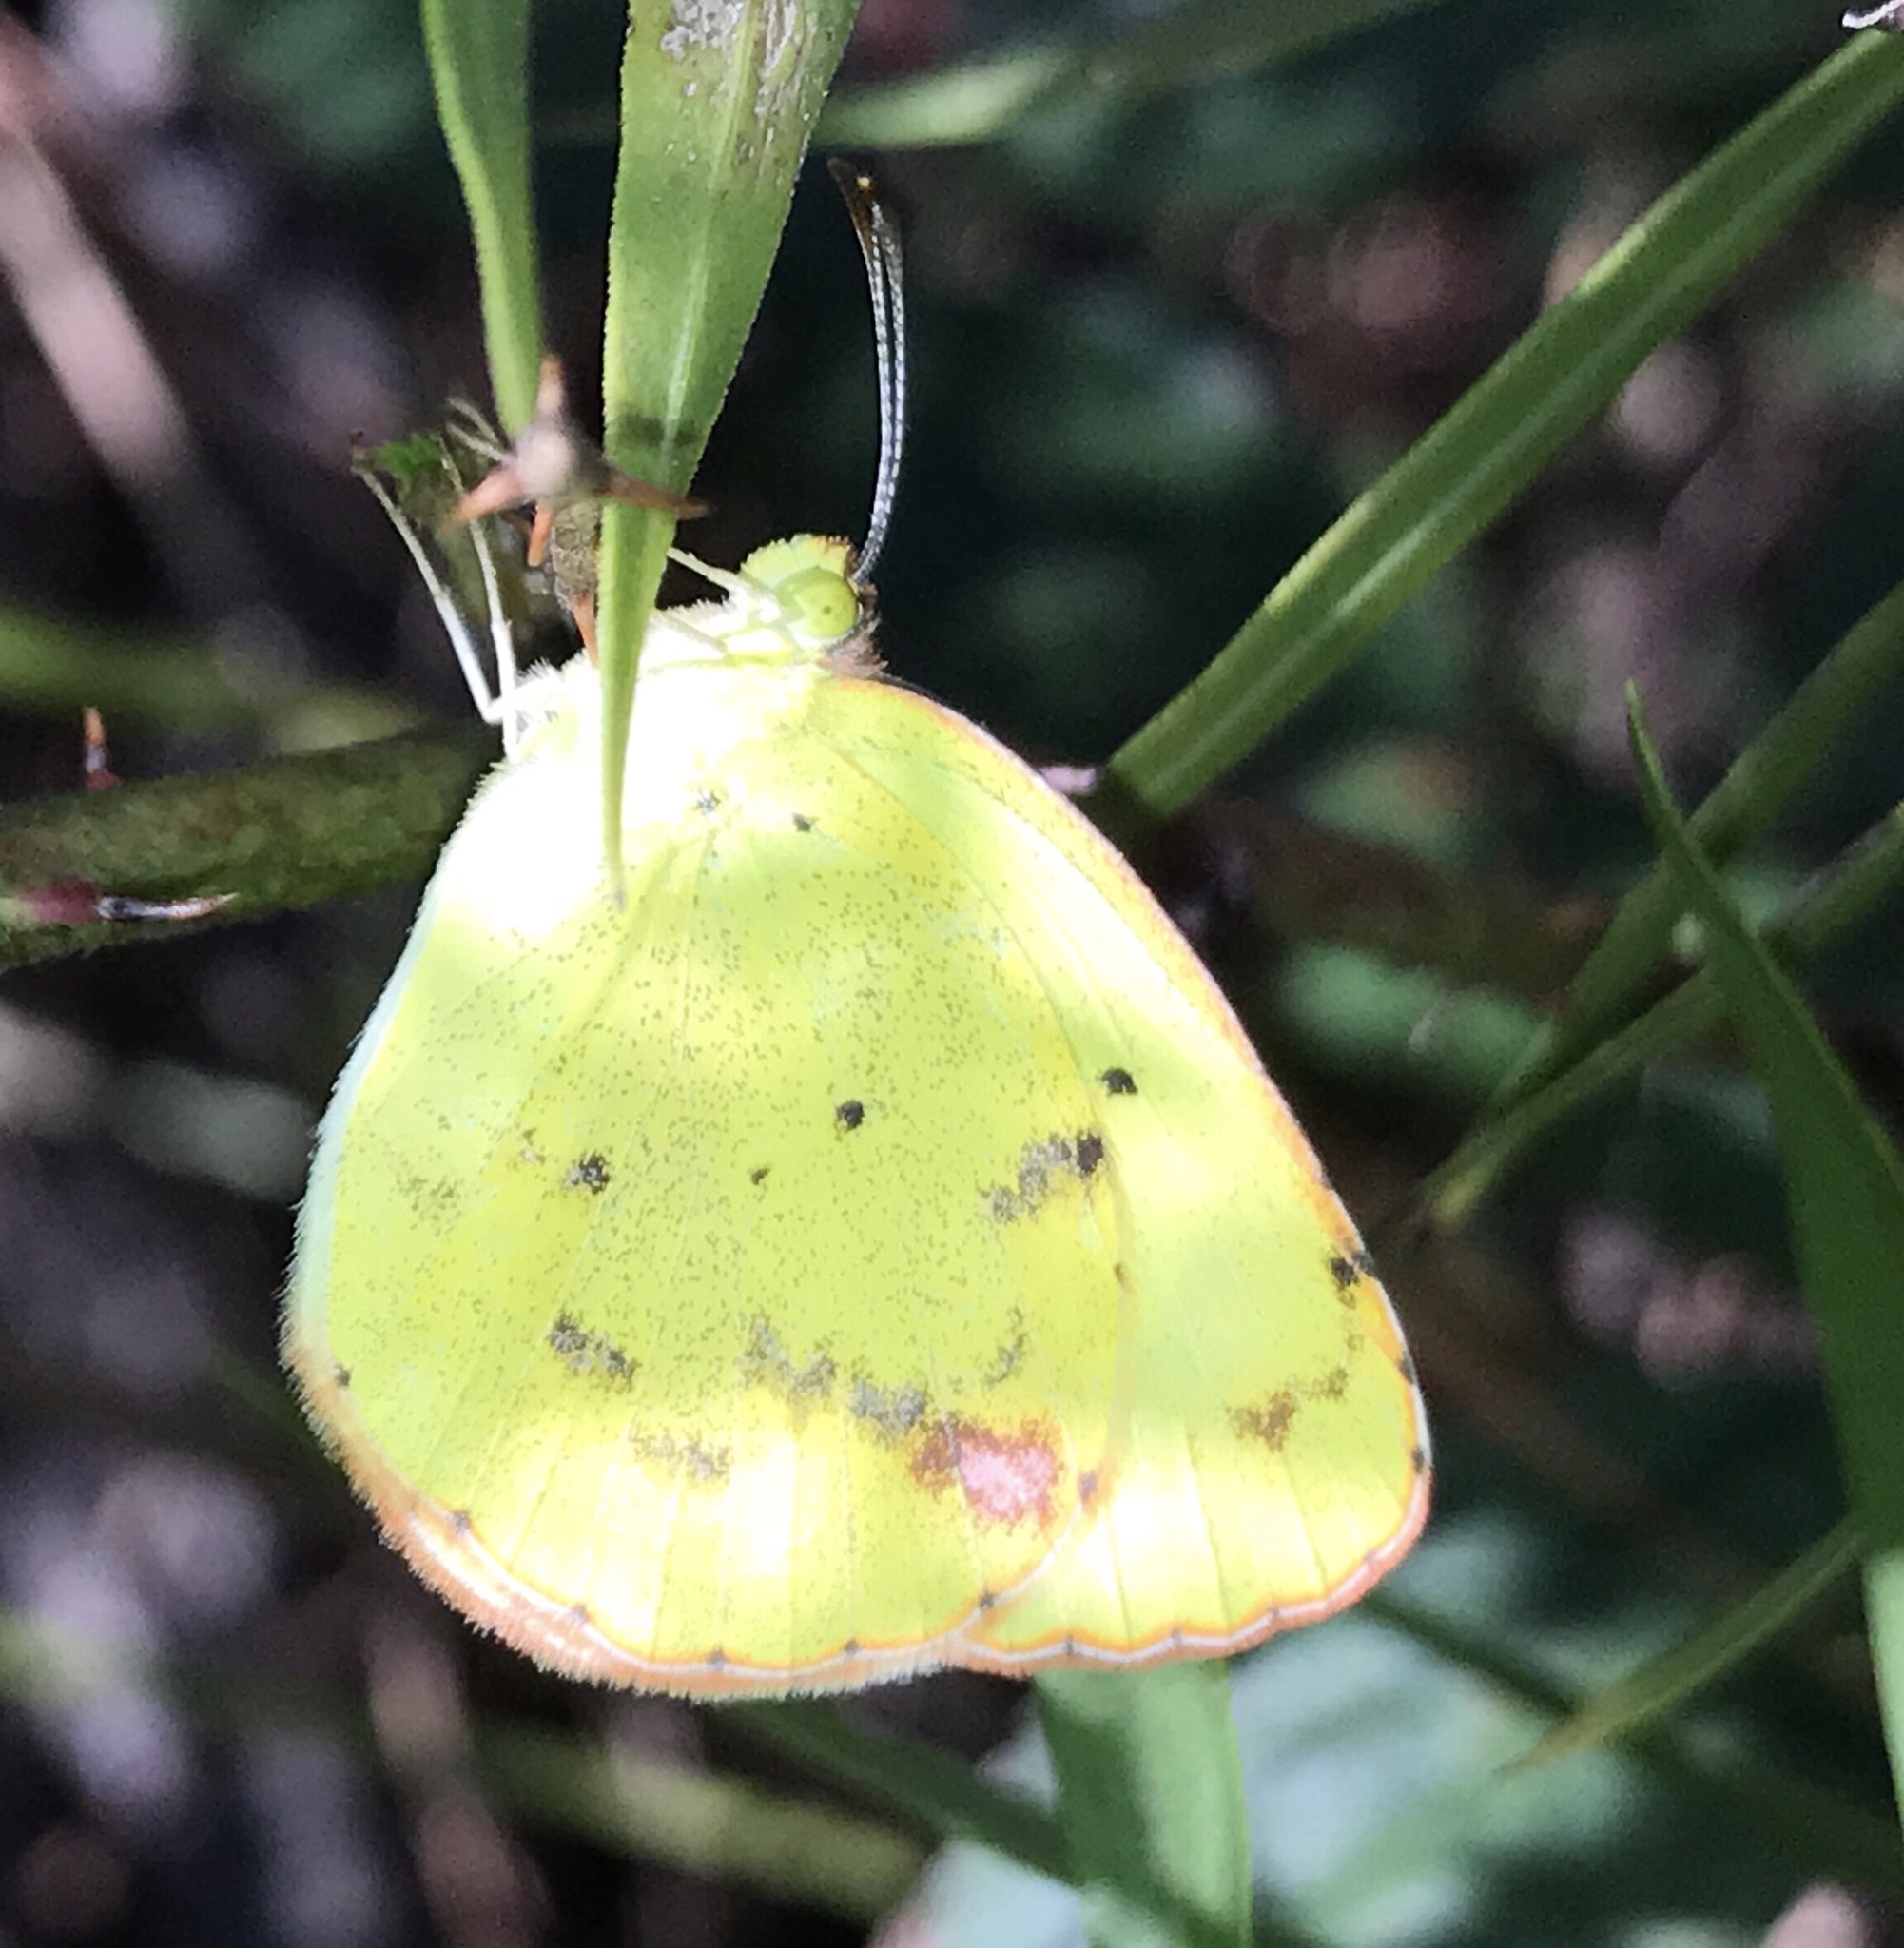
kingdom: Animalia
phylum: Arthropoda
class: Insecta
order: Lepidoptera
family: Pieridae
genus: Pyrisitia
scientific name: Pyrisitia lisa
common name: Little yellow
